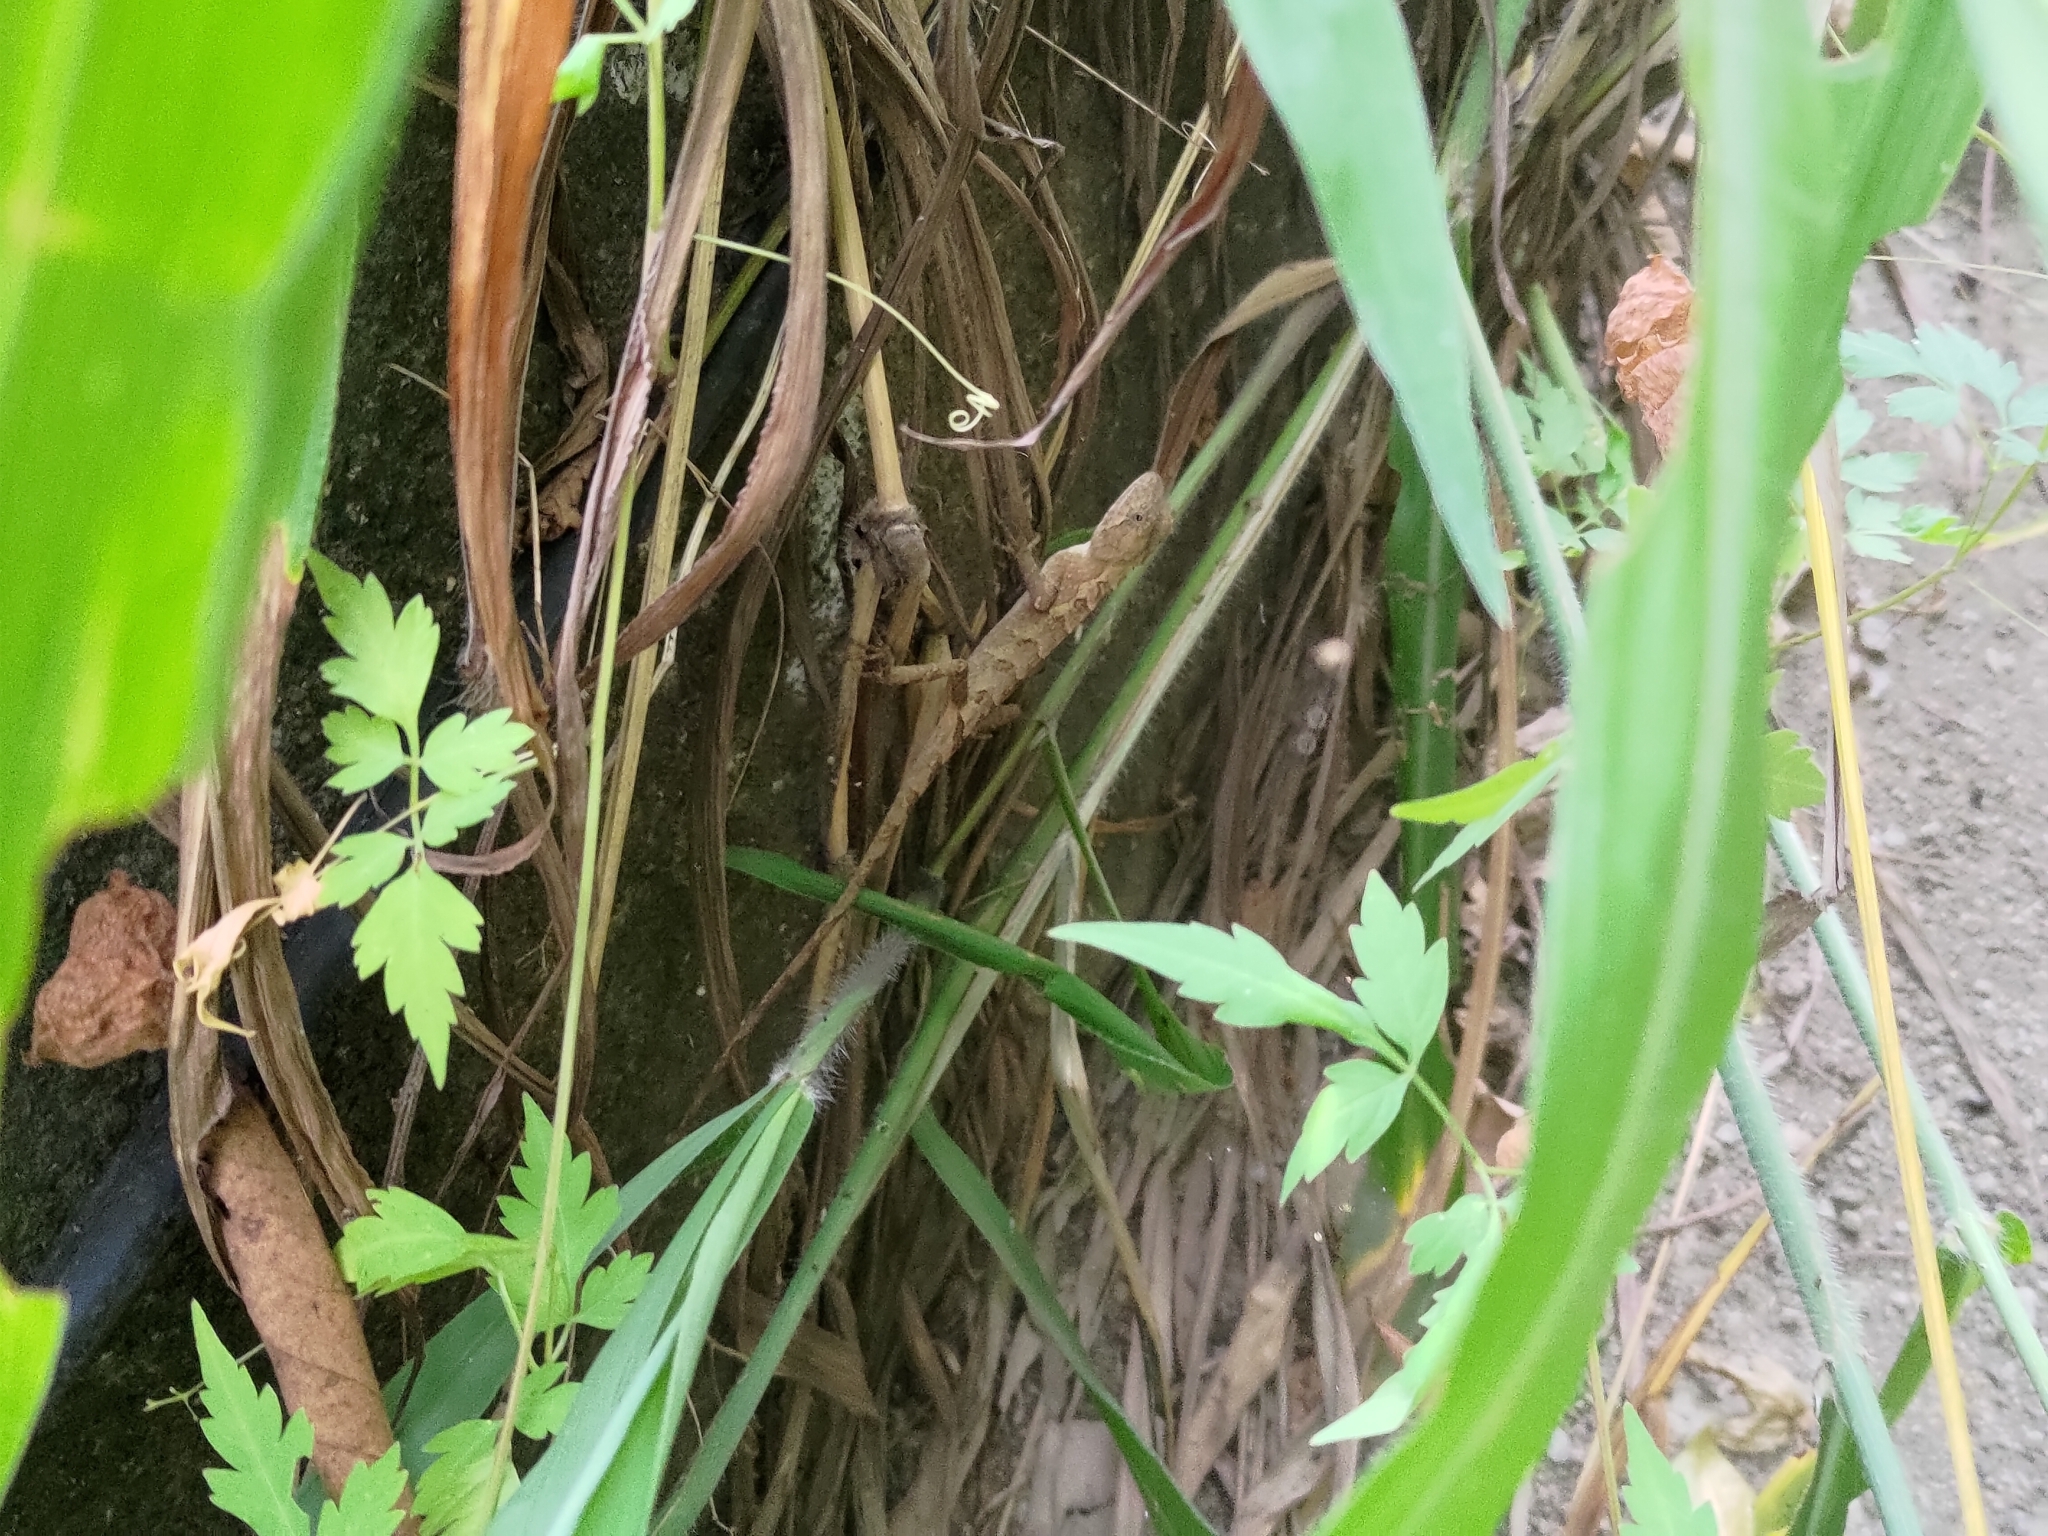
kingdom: Animalia
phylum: Chordata
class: Squamata
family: Agamidae
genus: Diploderma
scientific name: Diploderma swinhonis
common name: Taiwan japalure
